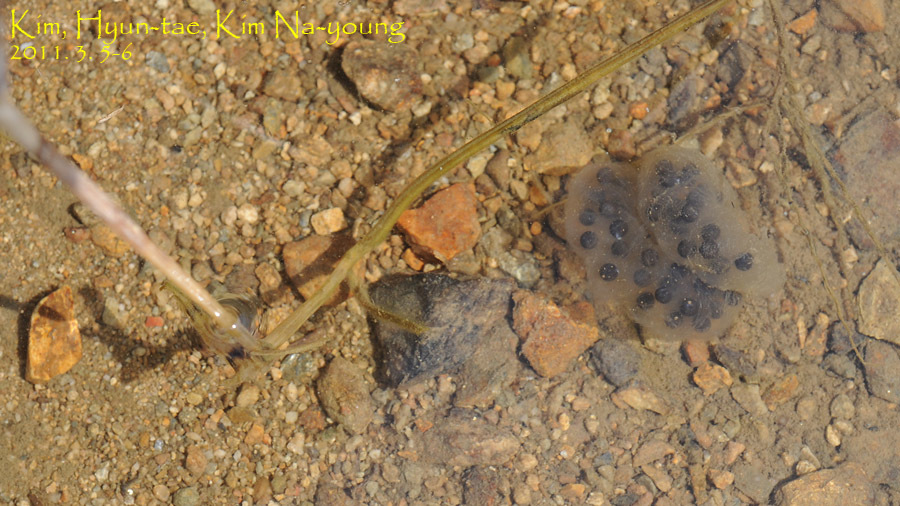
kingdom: Animalia
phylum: Chordata
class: Amphibia
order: Caudata
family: Hynobiidae
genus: Hynobius
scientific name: Hynobius leechii
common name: Gensan salamander
